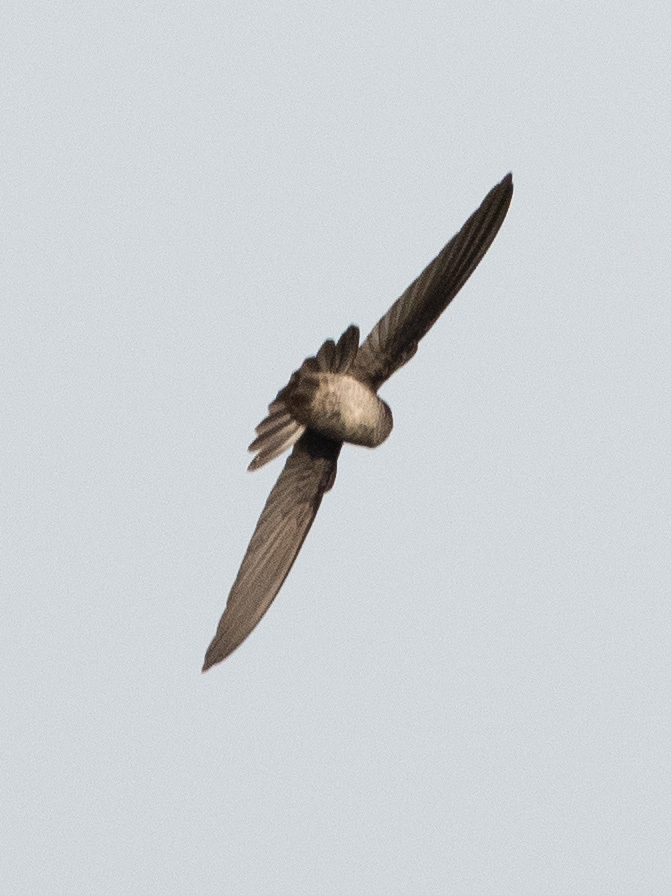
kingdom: Animalia
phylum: Chordata
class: Aves
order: Apodiformes
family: Apodidae
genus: Aerodramus
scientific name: Aerodramus spodiopygius
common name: White-rumped swiftlet
